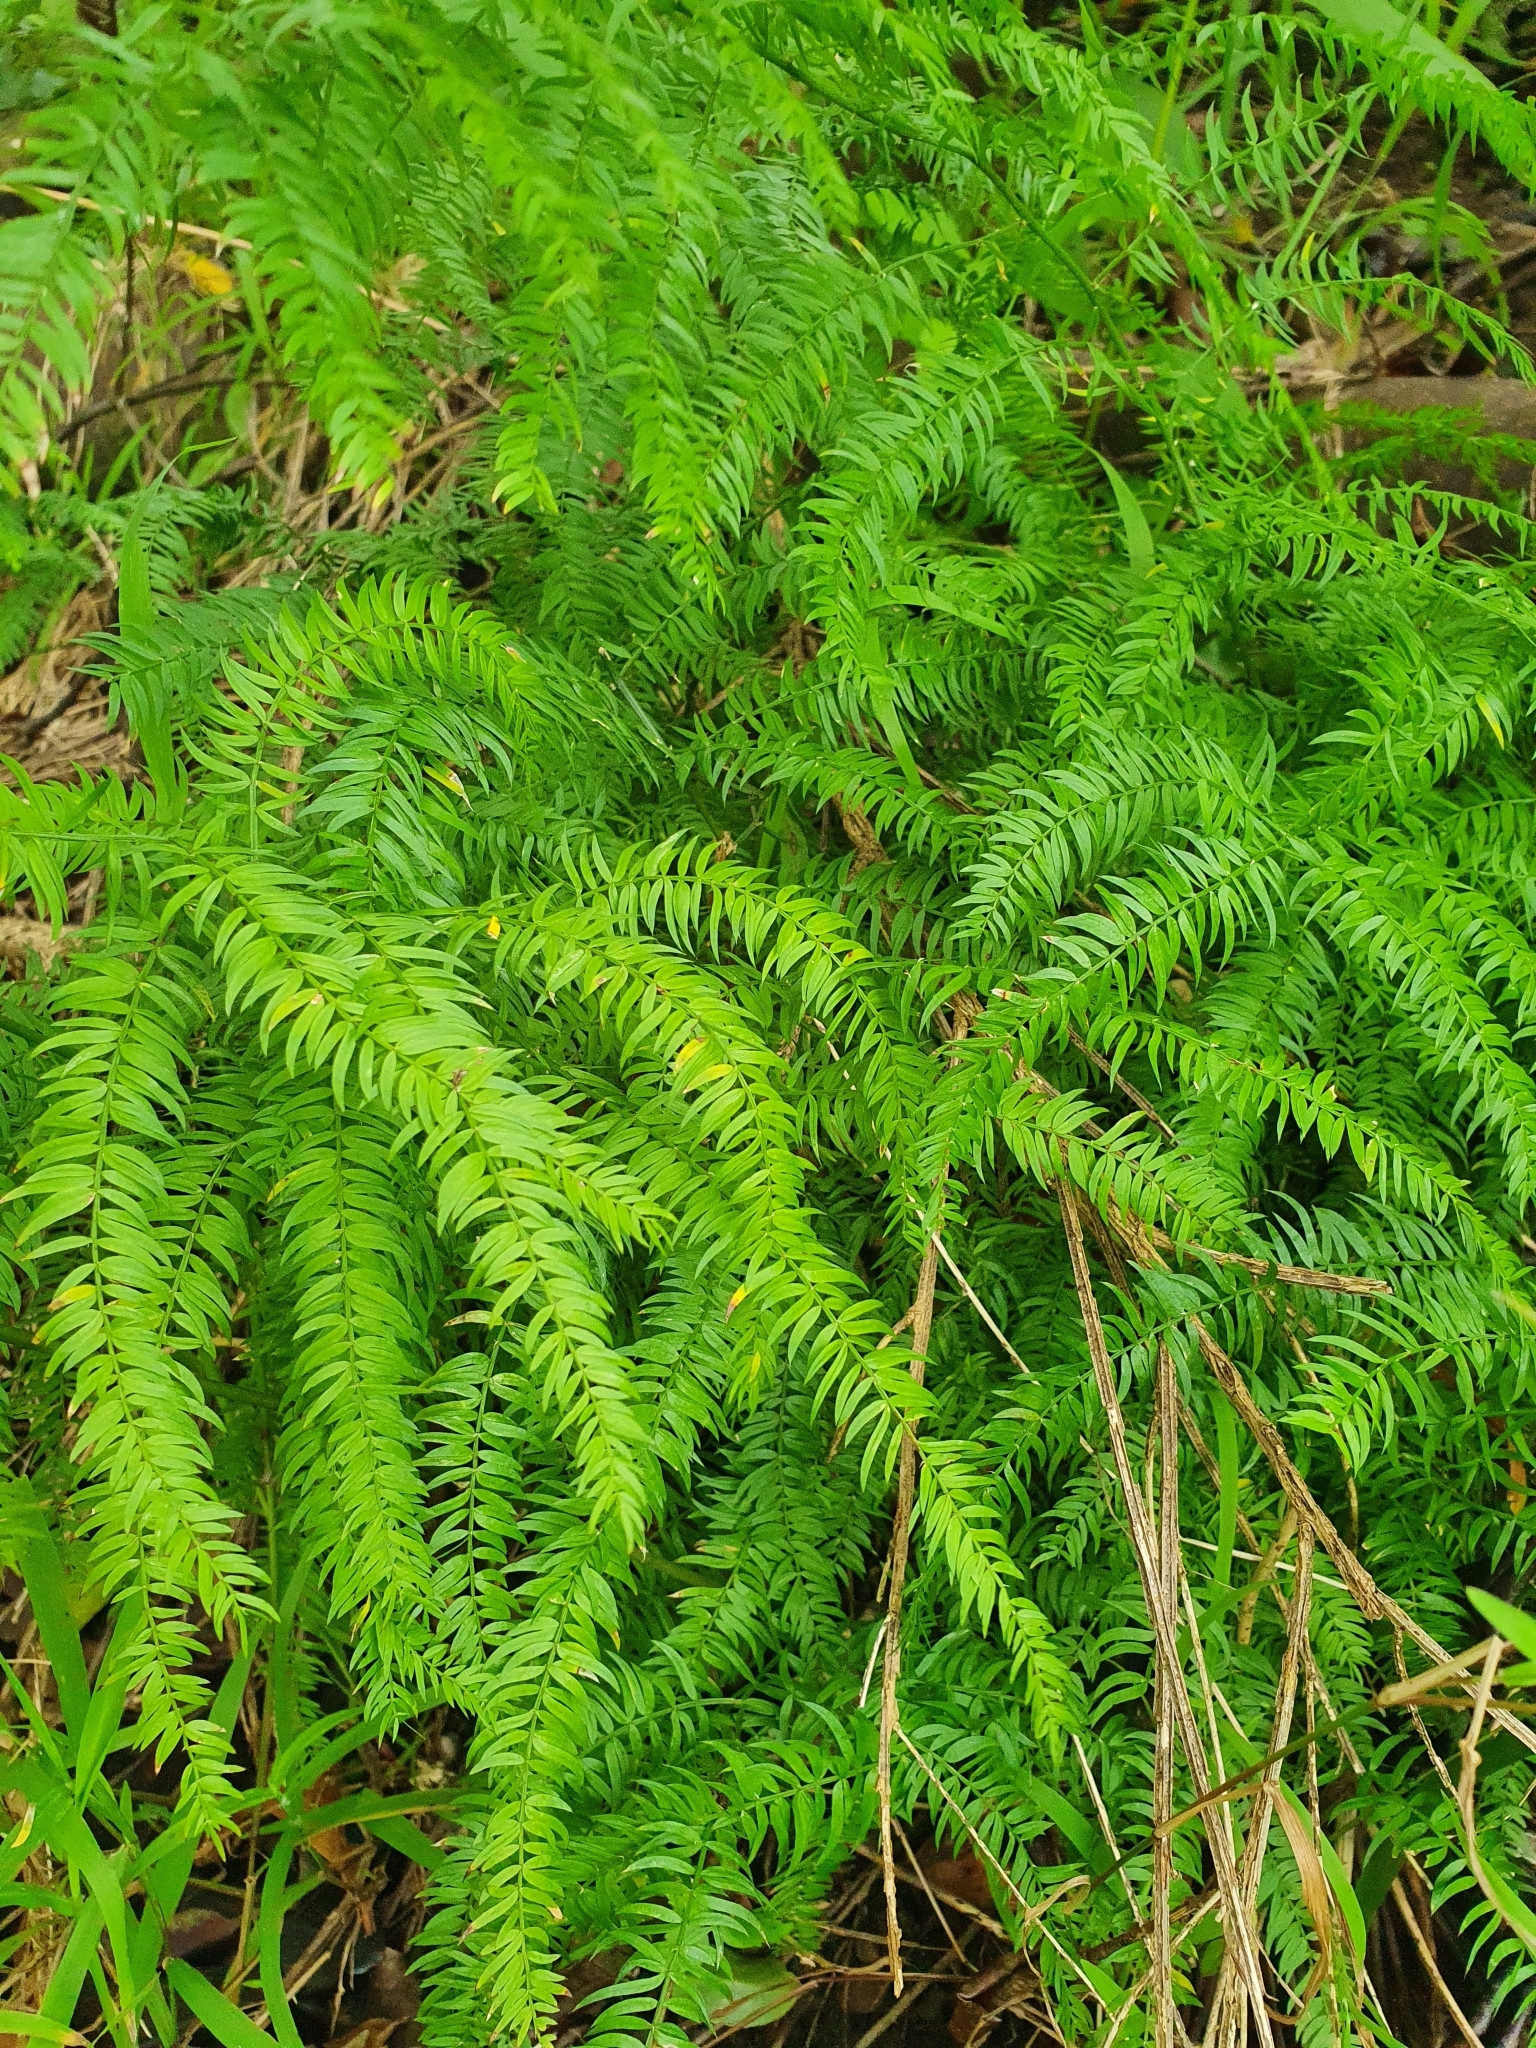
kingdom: Plantae
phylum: Tracheophyta
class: Liliopsida
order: Asparagales
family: Asparagaceae
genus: Asparagus
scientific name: Asparagus scandens
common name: Asparagus-fern
